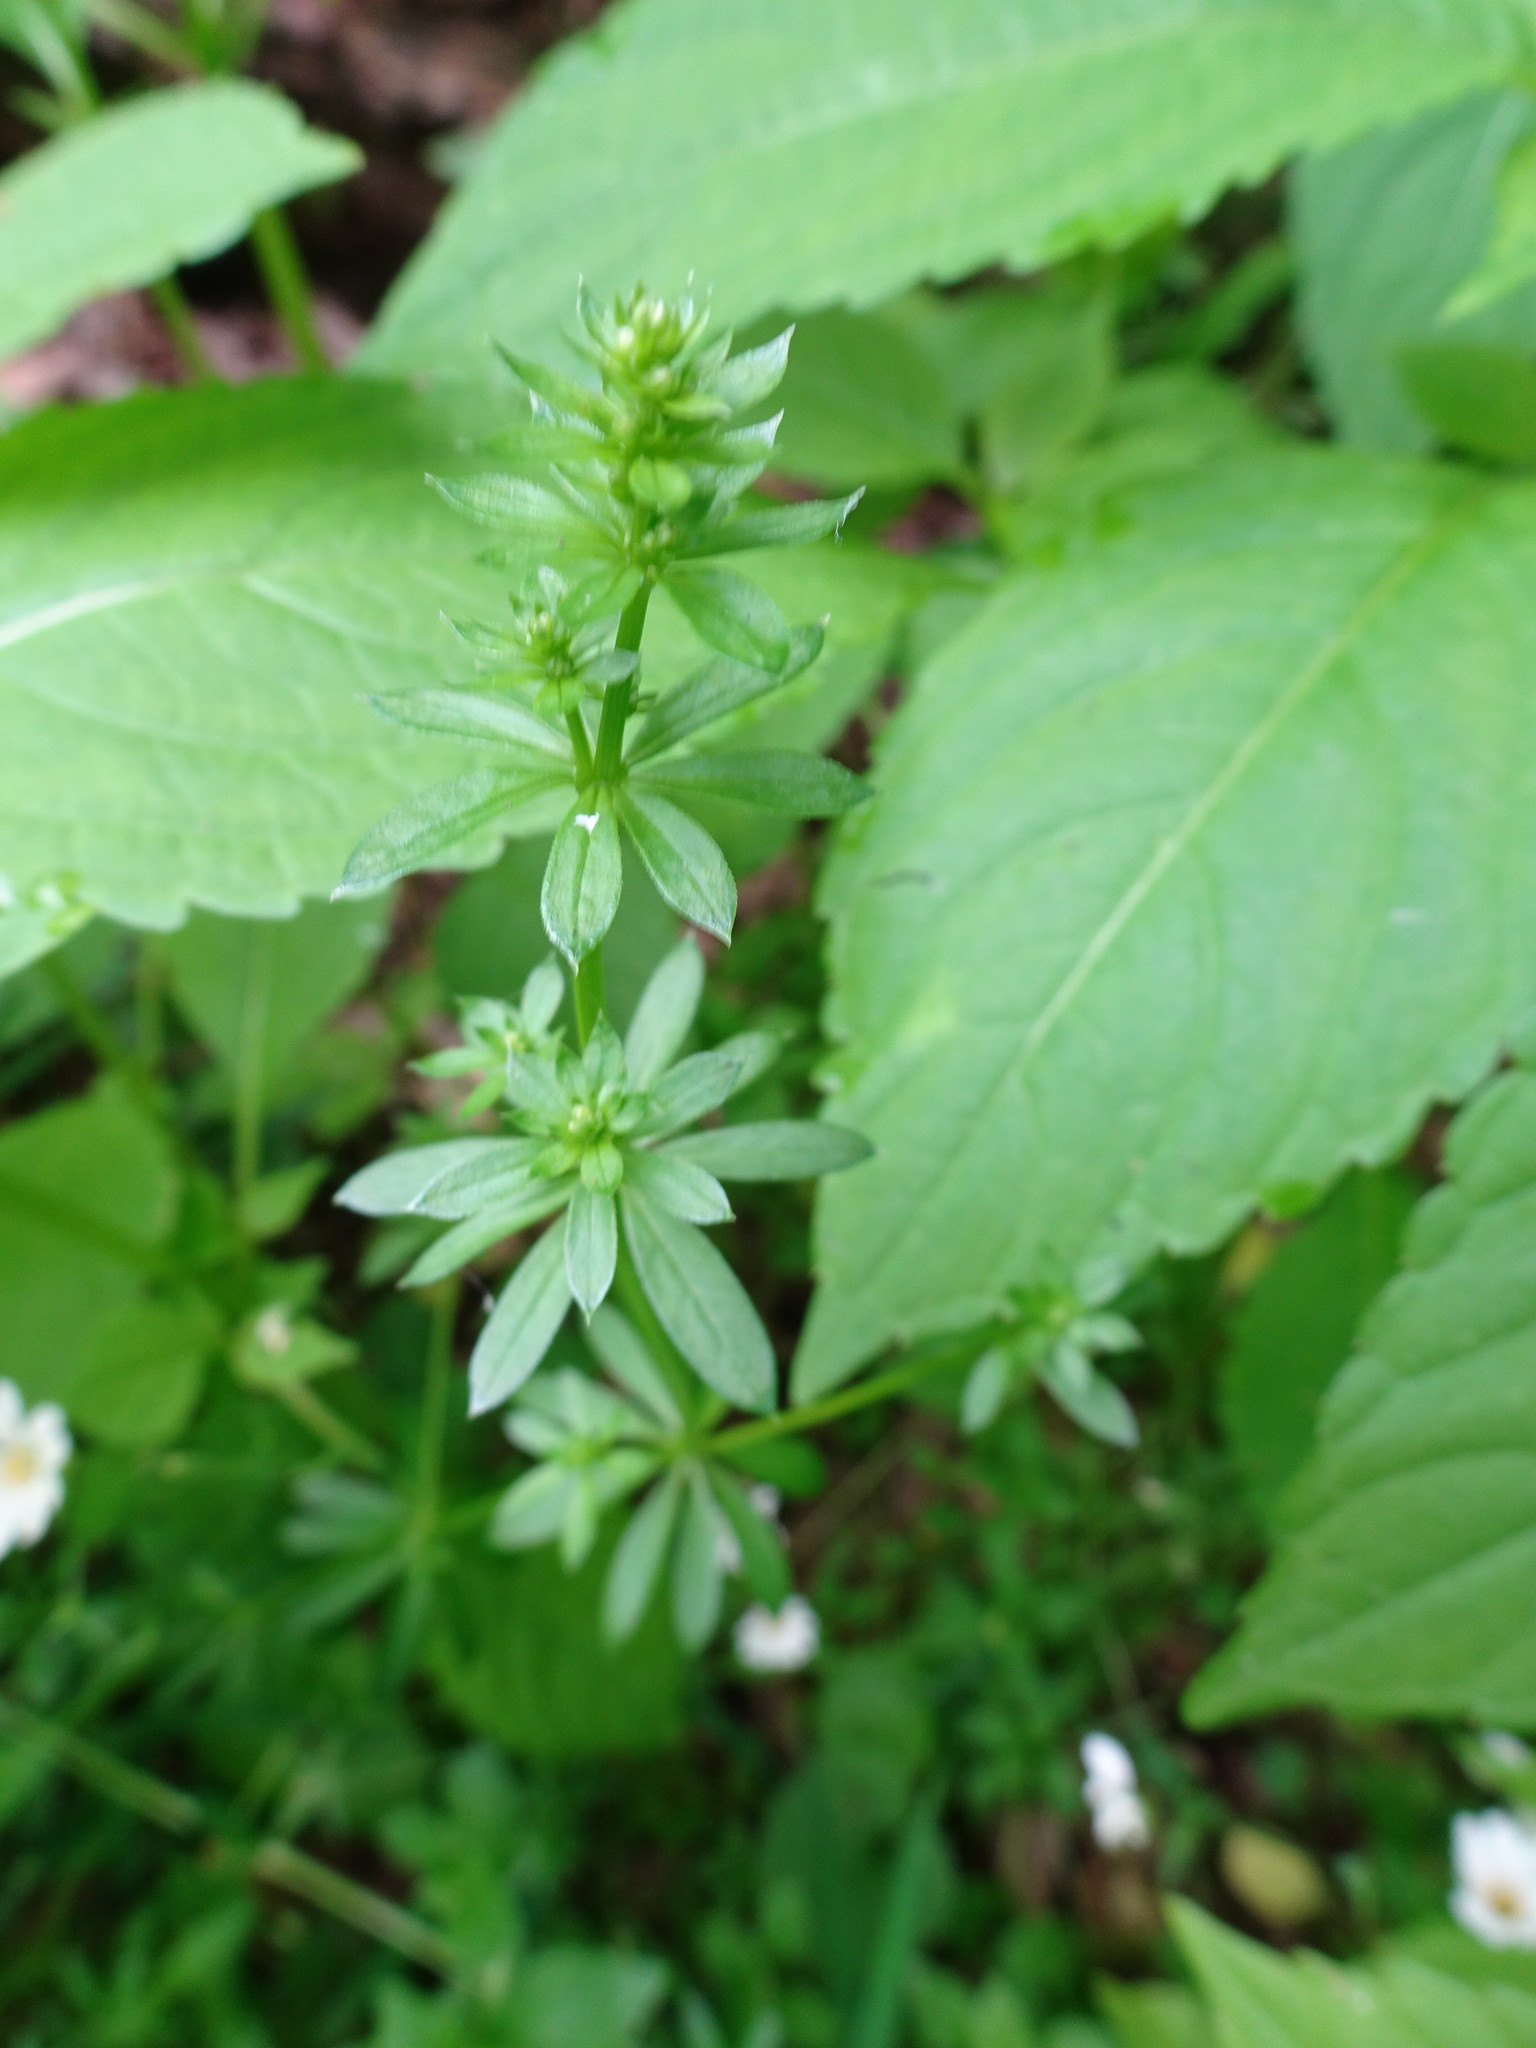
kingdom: Plantae
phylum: Tracheophyta
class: Magnoliopsida
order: Gentianales
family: Rubiaceae
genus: Galium
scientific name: Galium album
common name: White bedstraw
